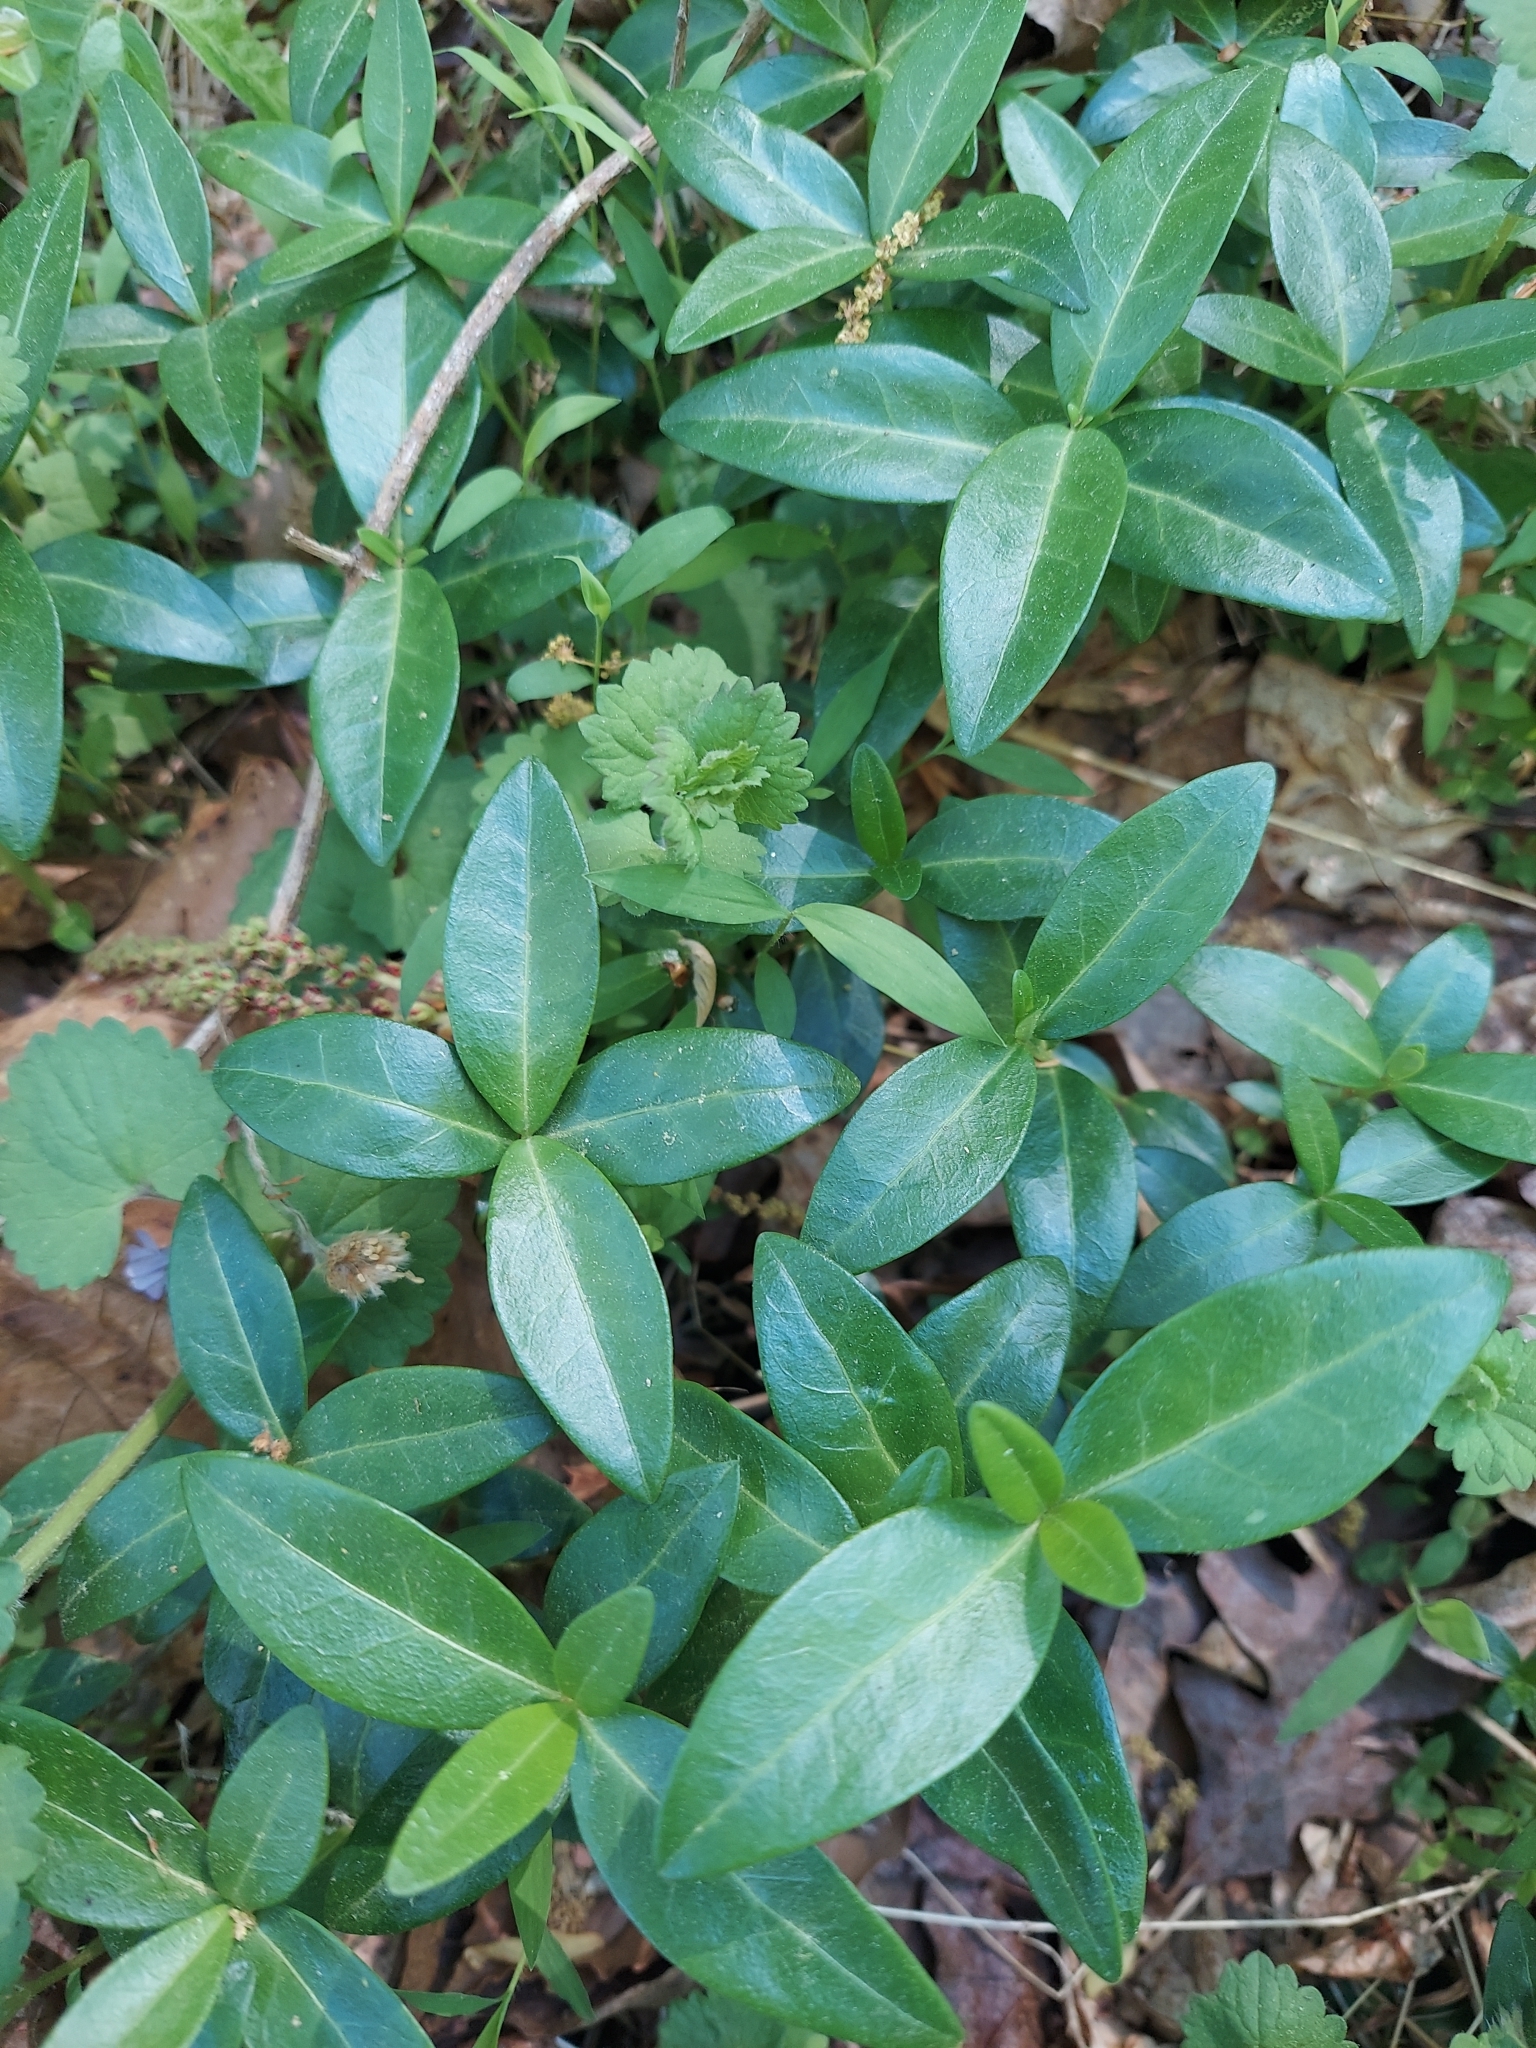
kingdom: Plantae
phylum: Tracheophyta
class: Magnoliopsida
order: Gentianales
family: Apocynaceae
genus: Vinca
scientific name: Vinca minor
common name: Lesser periwinkle
